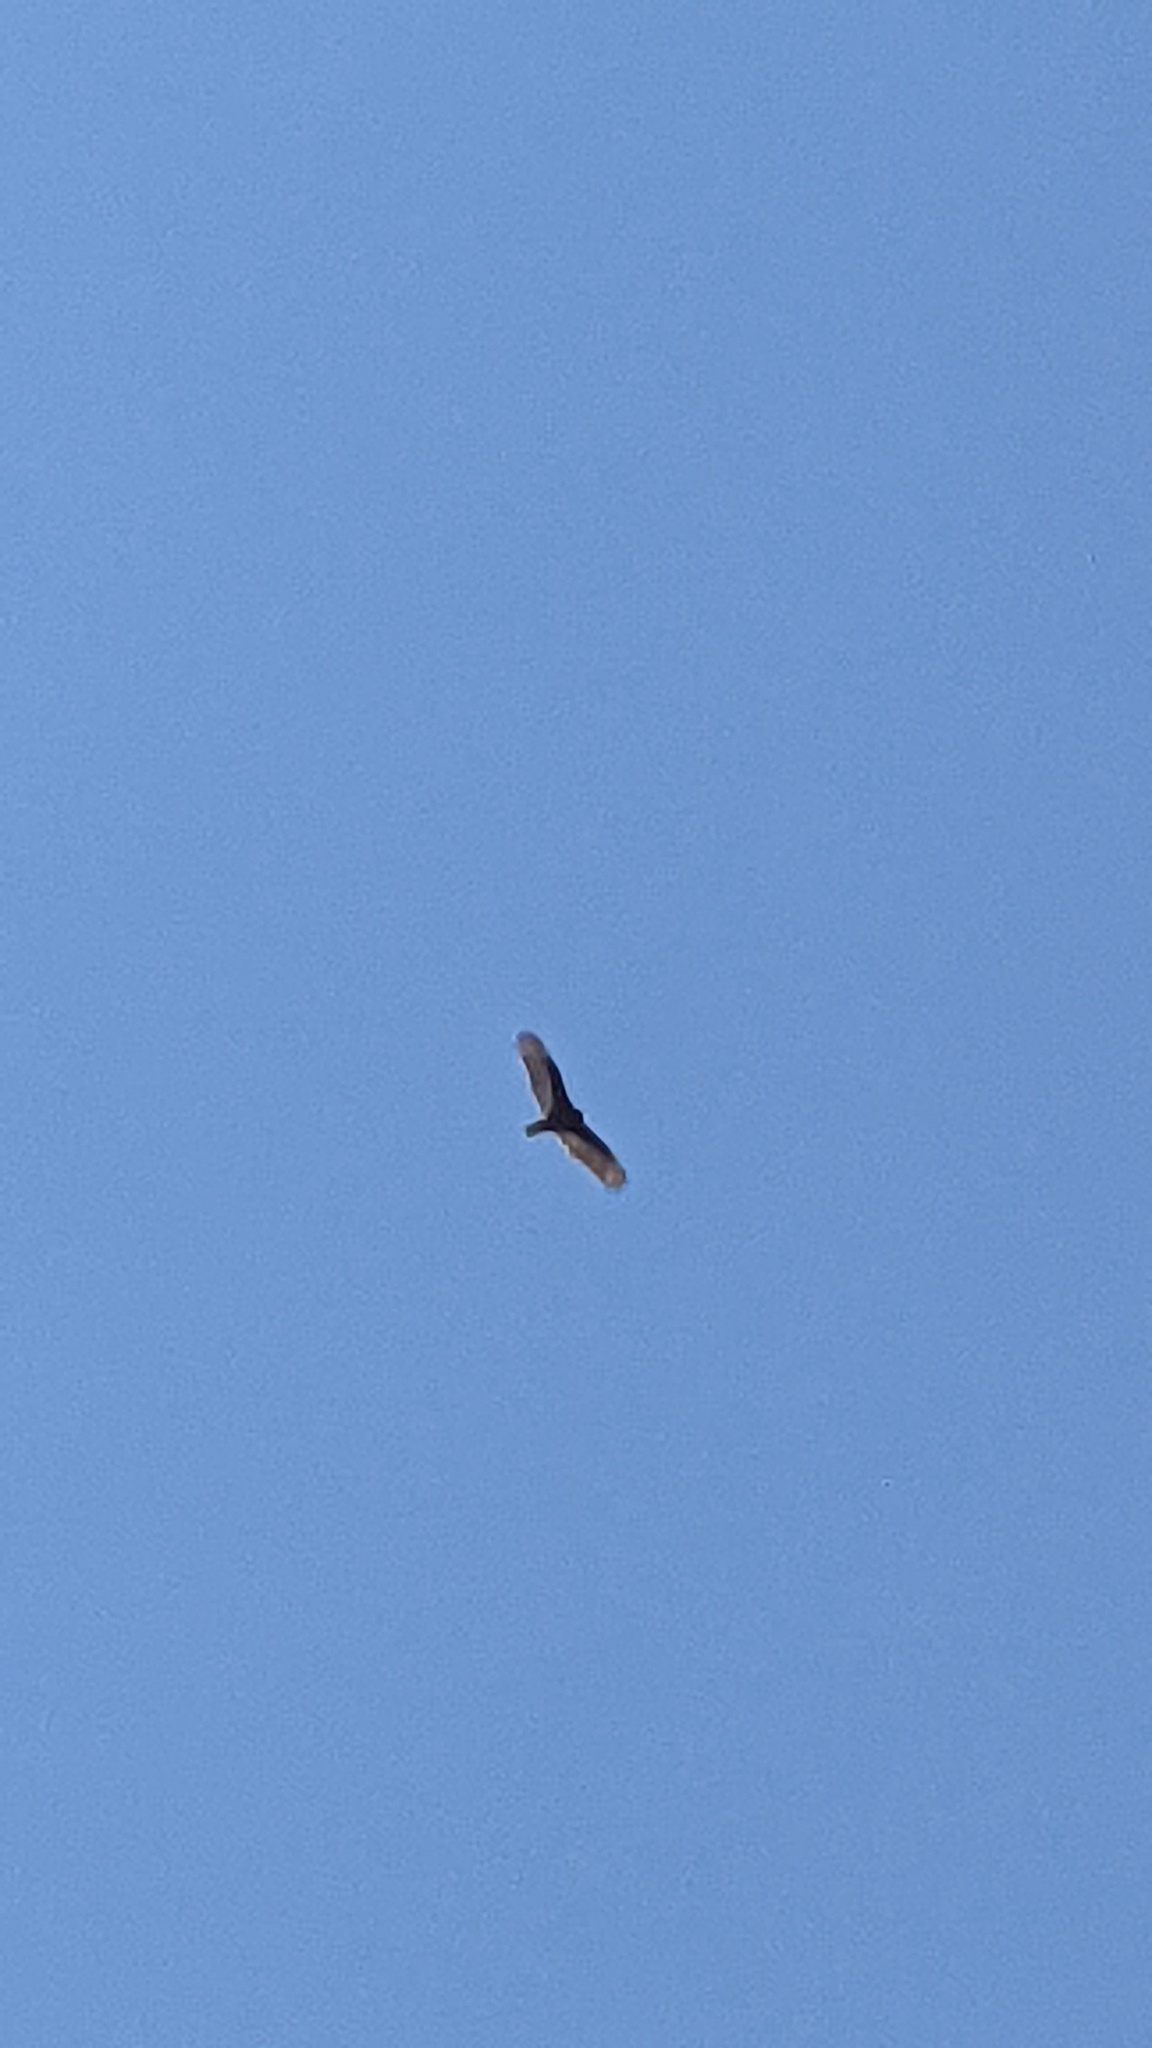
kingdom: Animalia
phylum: Chordata
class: Aves
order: Accipitriformes
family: Cathartidae
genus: Cathartes
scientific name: Cathartes aura
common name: Turkey vulture
